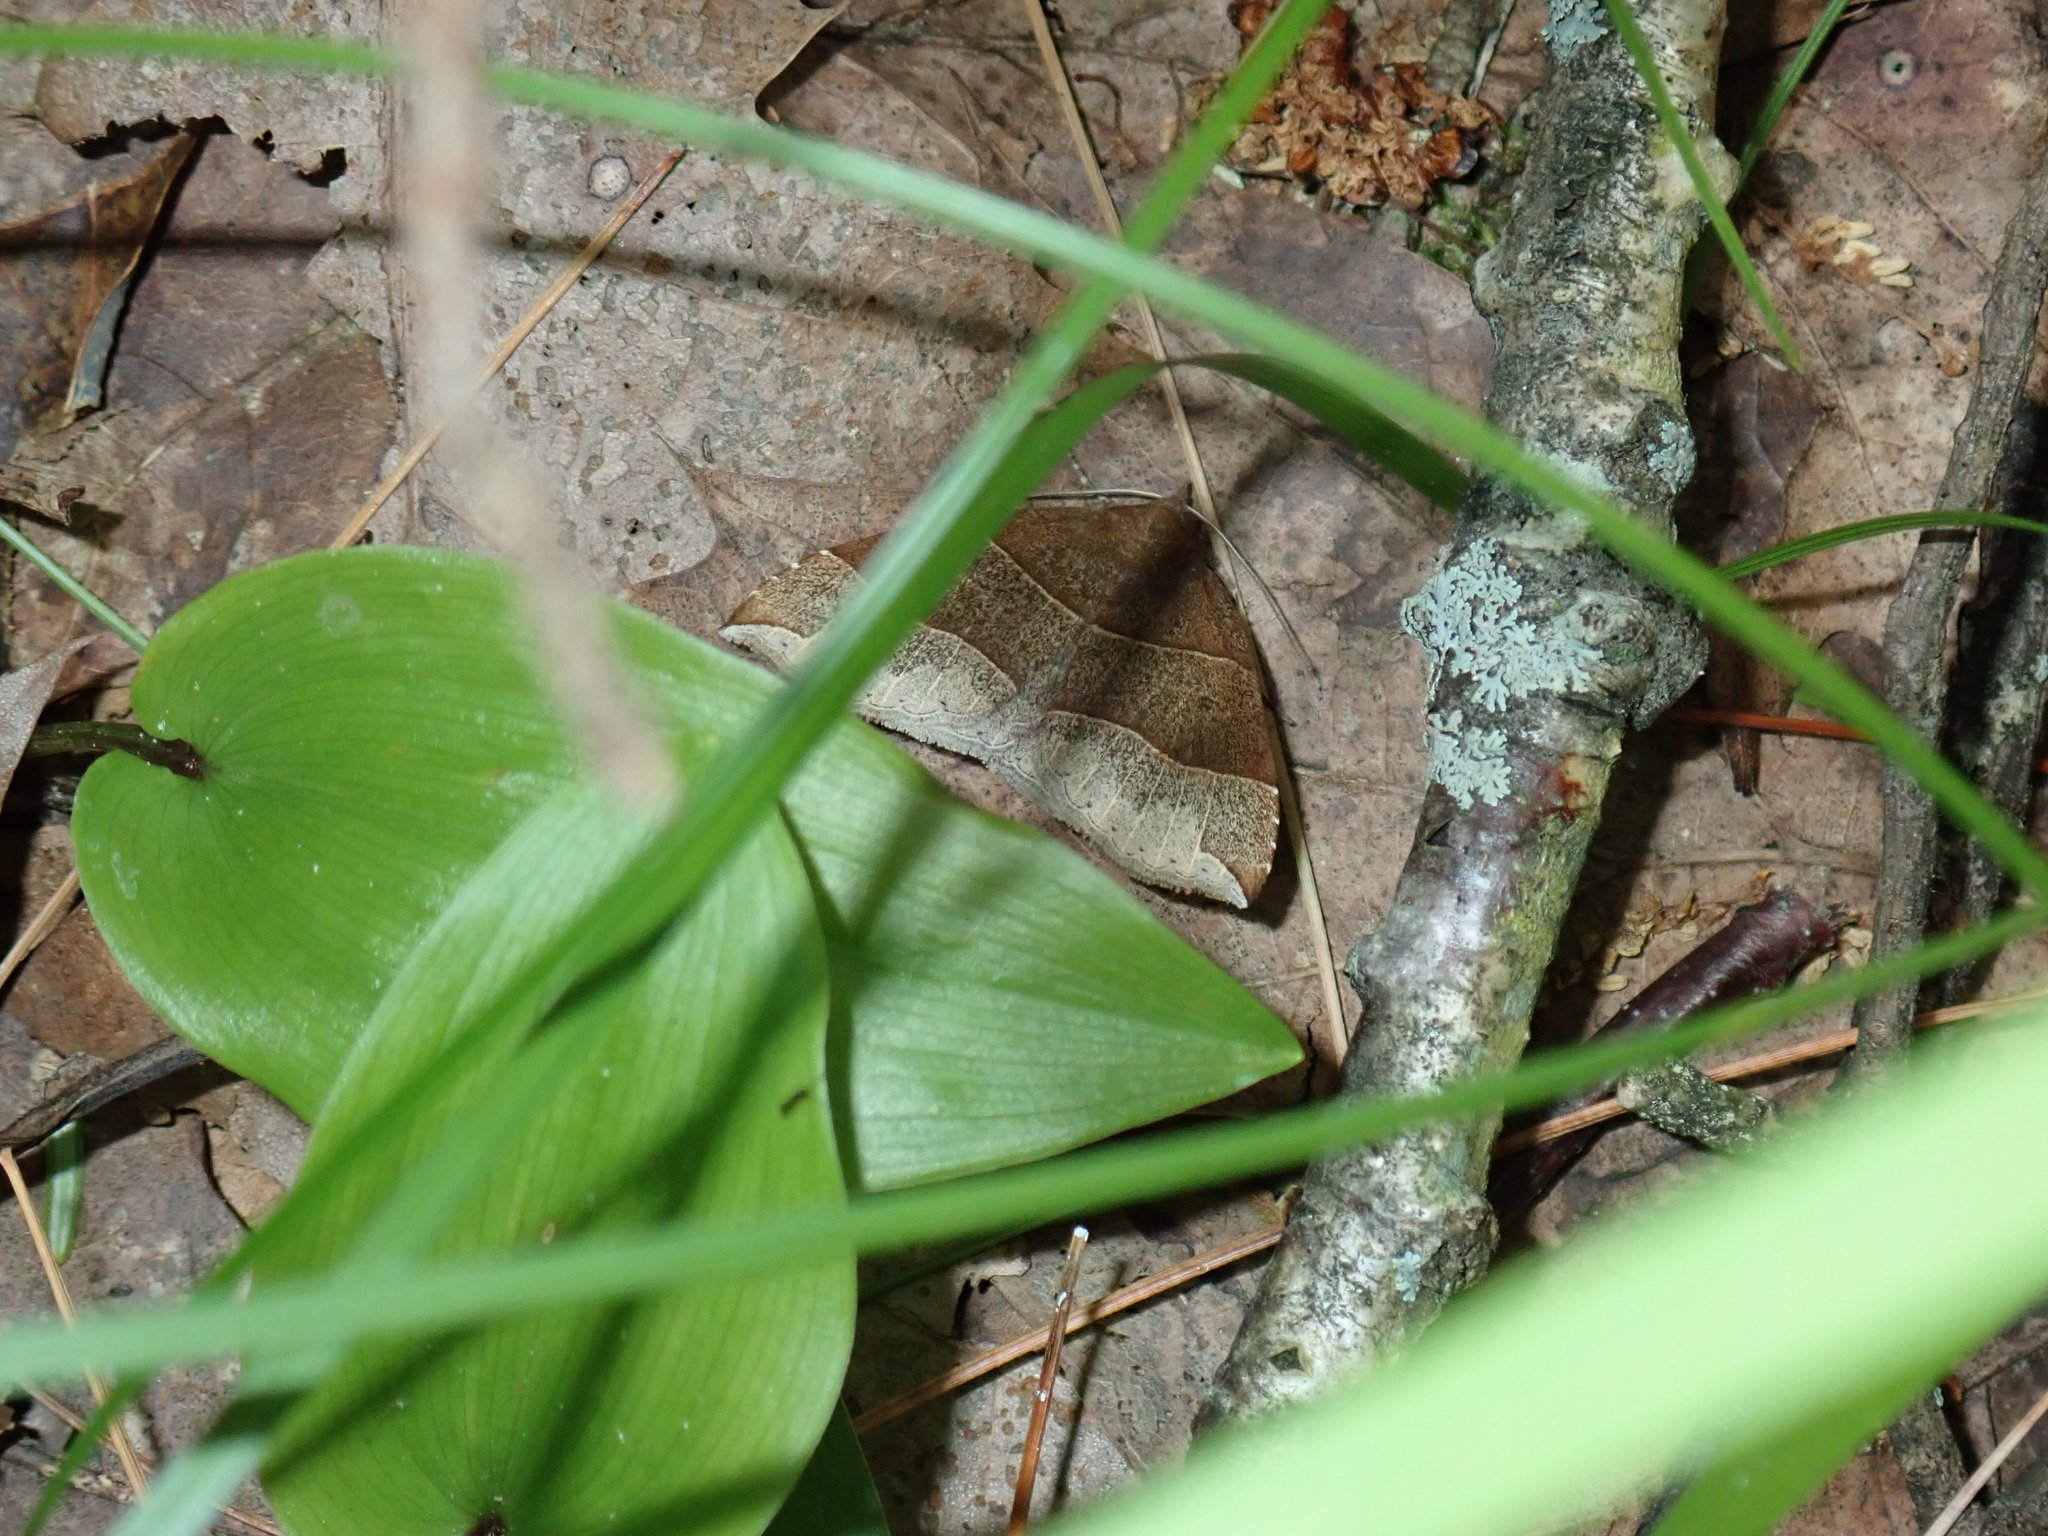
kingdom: Animalia
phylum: Arthropoda
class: Insecta
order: Lepidoptera
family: Erebidae
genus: Parallelia
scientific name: Parallelia bistriaris
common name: Maple looper moth
